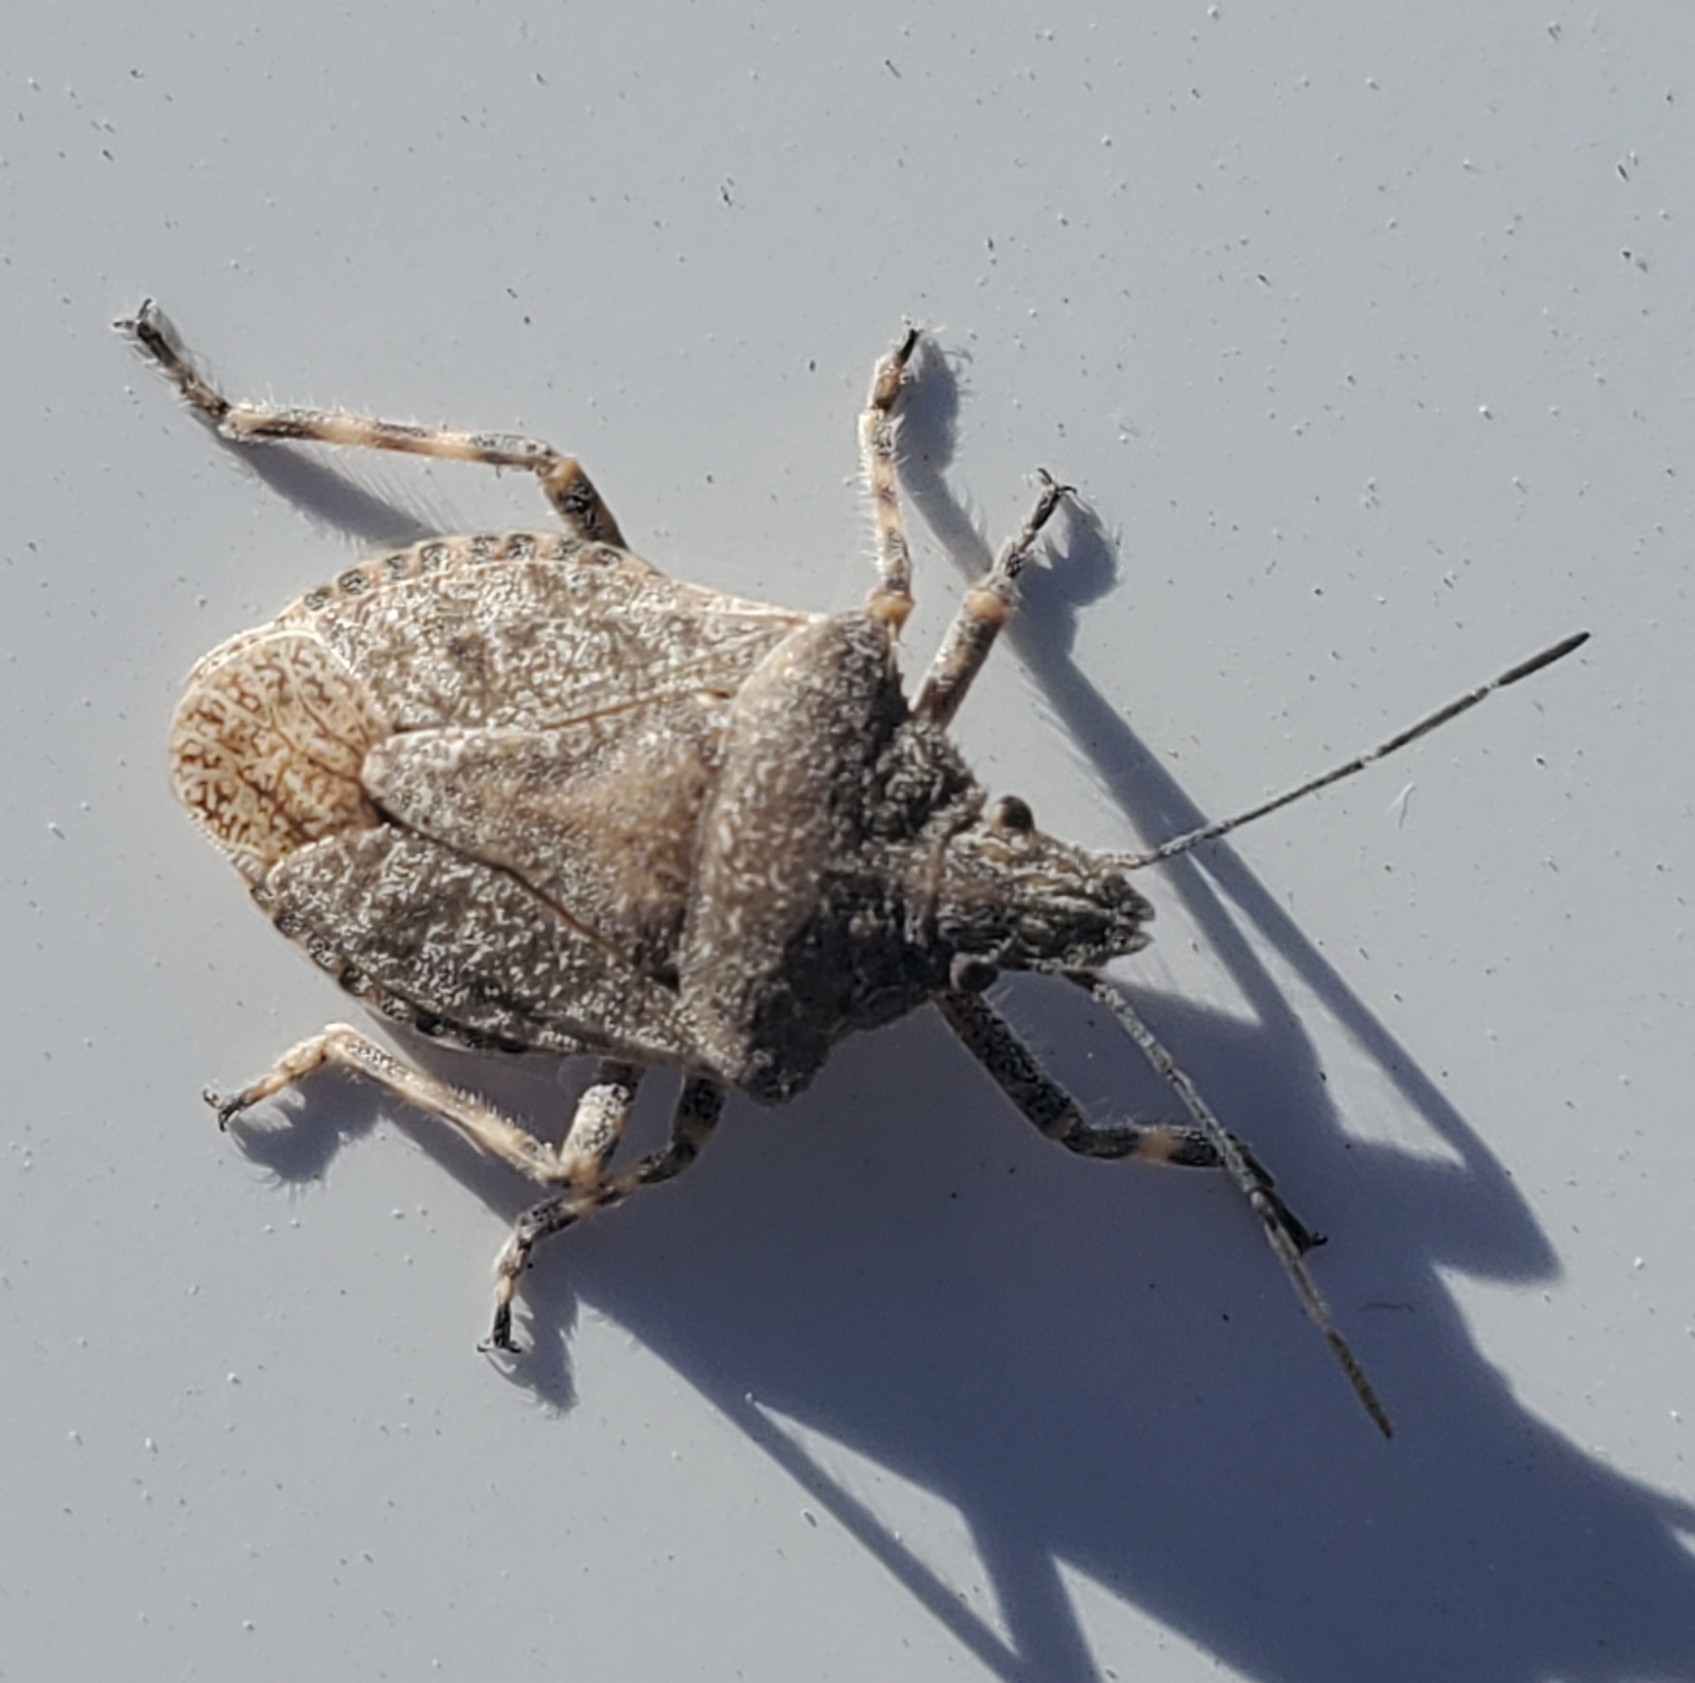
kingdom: Animalia
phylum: Arthropoda
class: Insecta
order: Hemiptera
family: Pentatomidae
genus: Brochymena
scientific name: Brochymena sulcata
